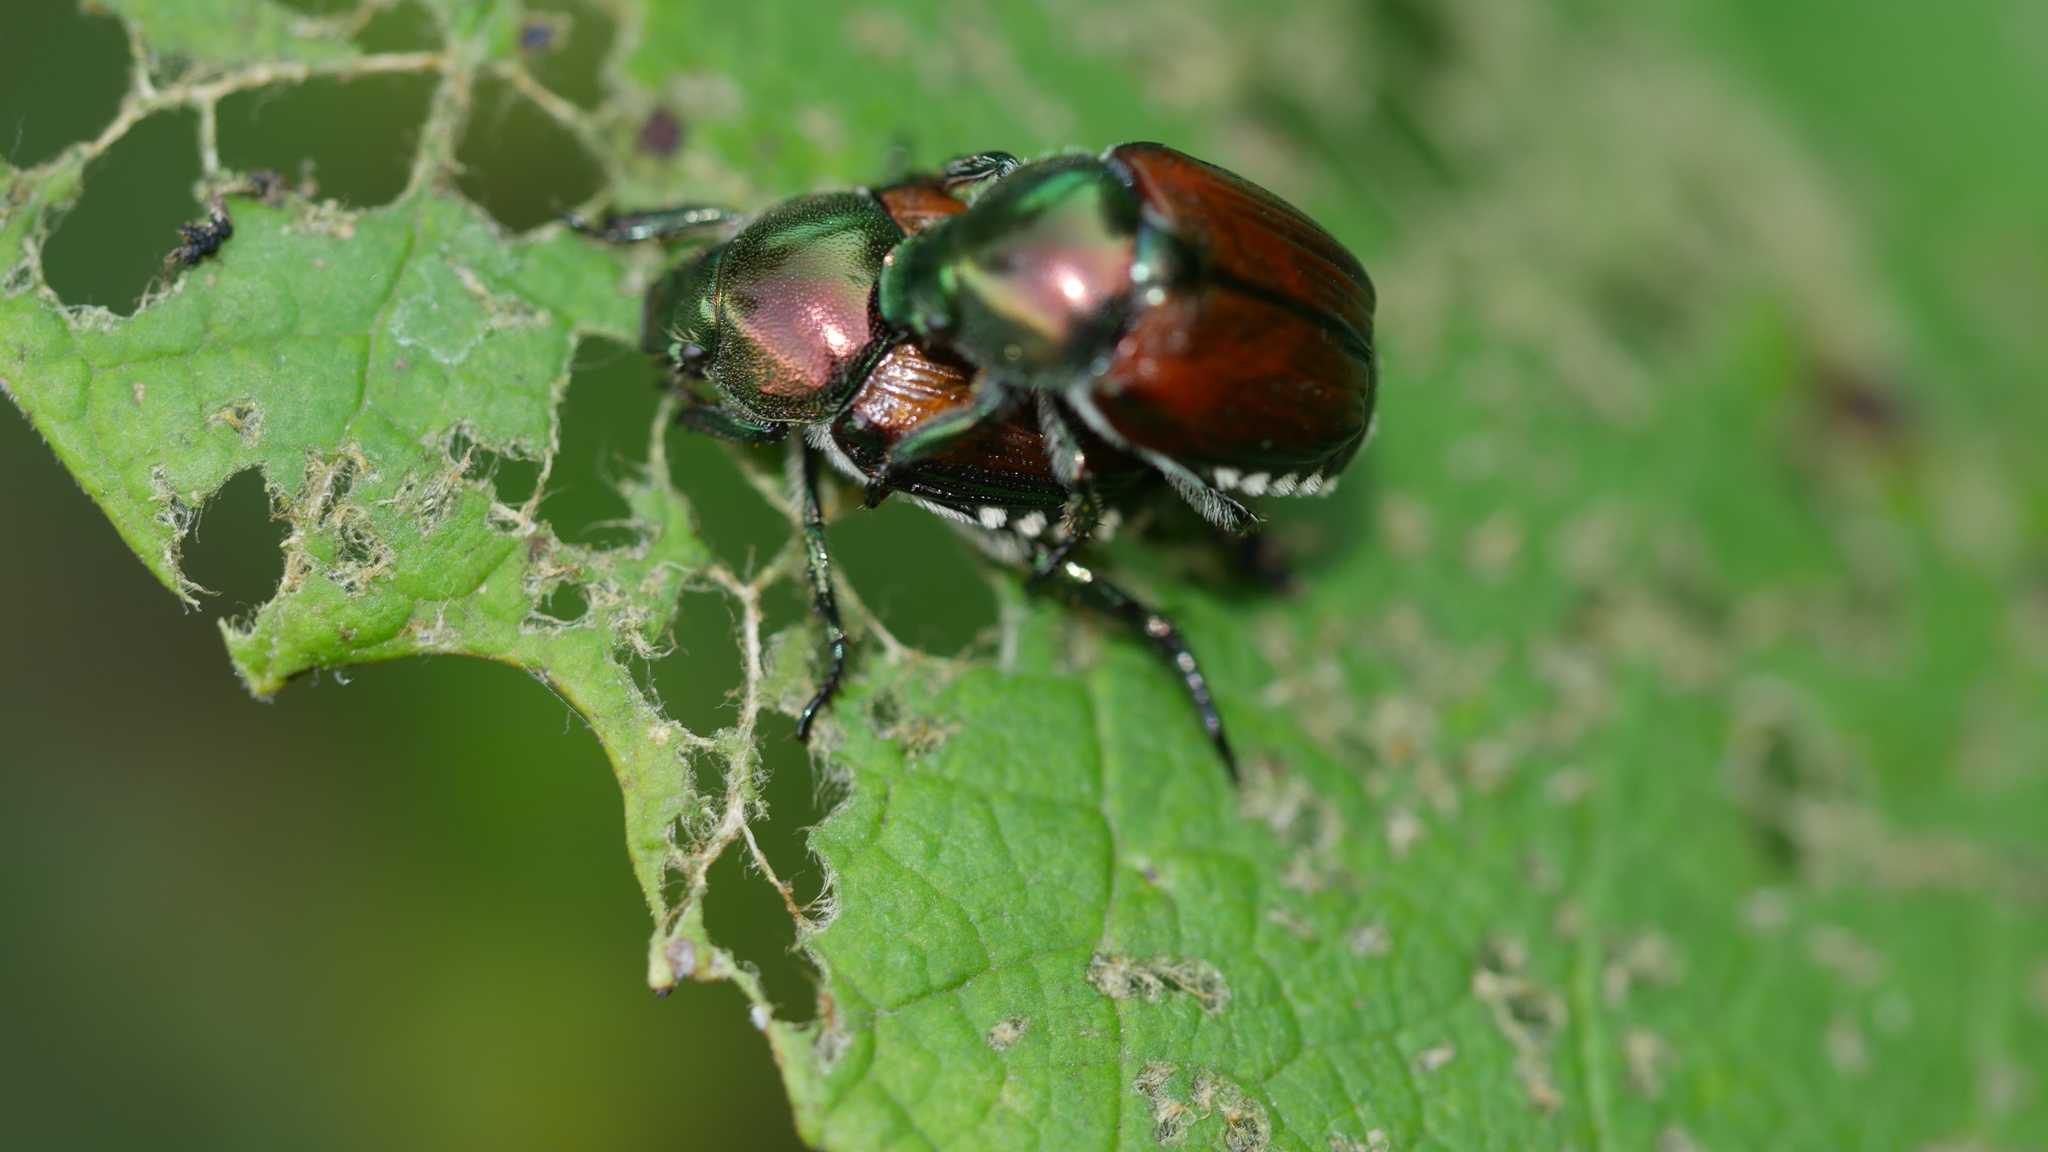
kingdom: Animalia
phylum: Arthropoda
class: Insecta
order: Coleoptera
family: Scarabaeidae
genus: Popillia
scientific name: Popillia japonica
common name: Japanese beetle
